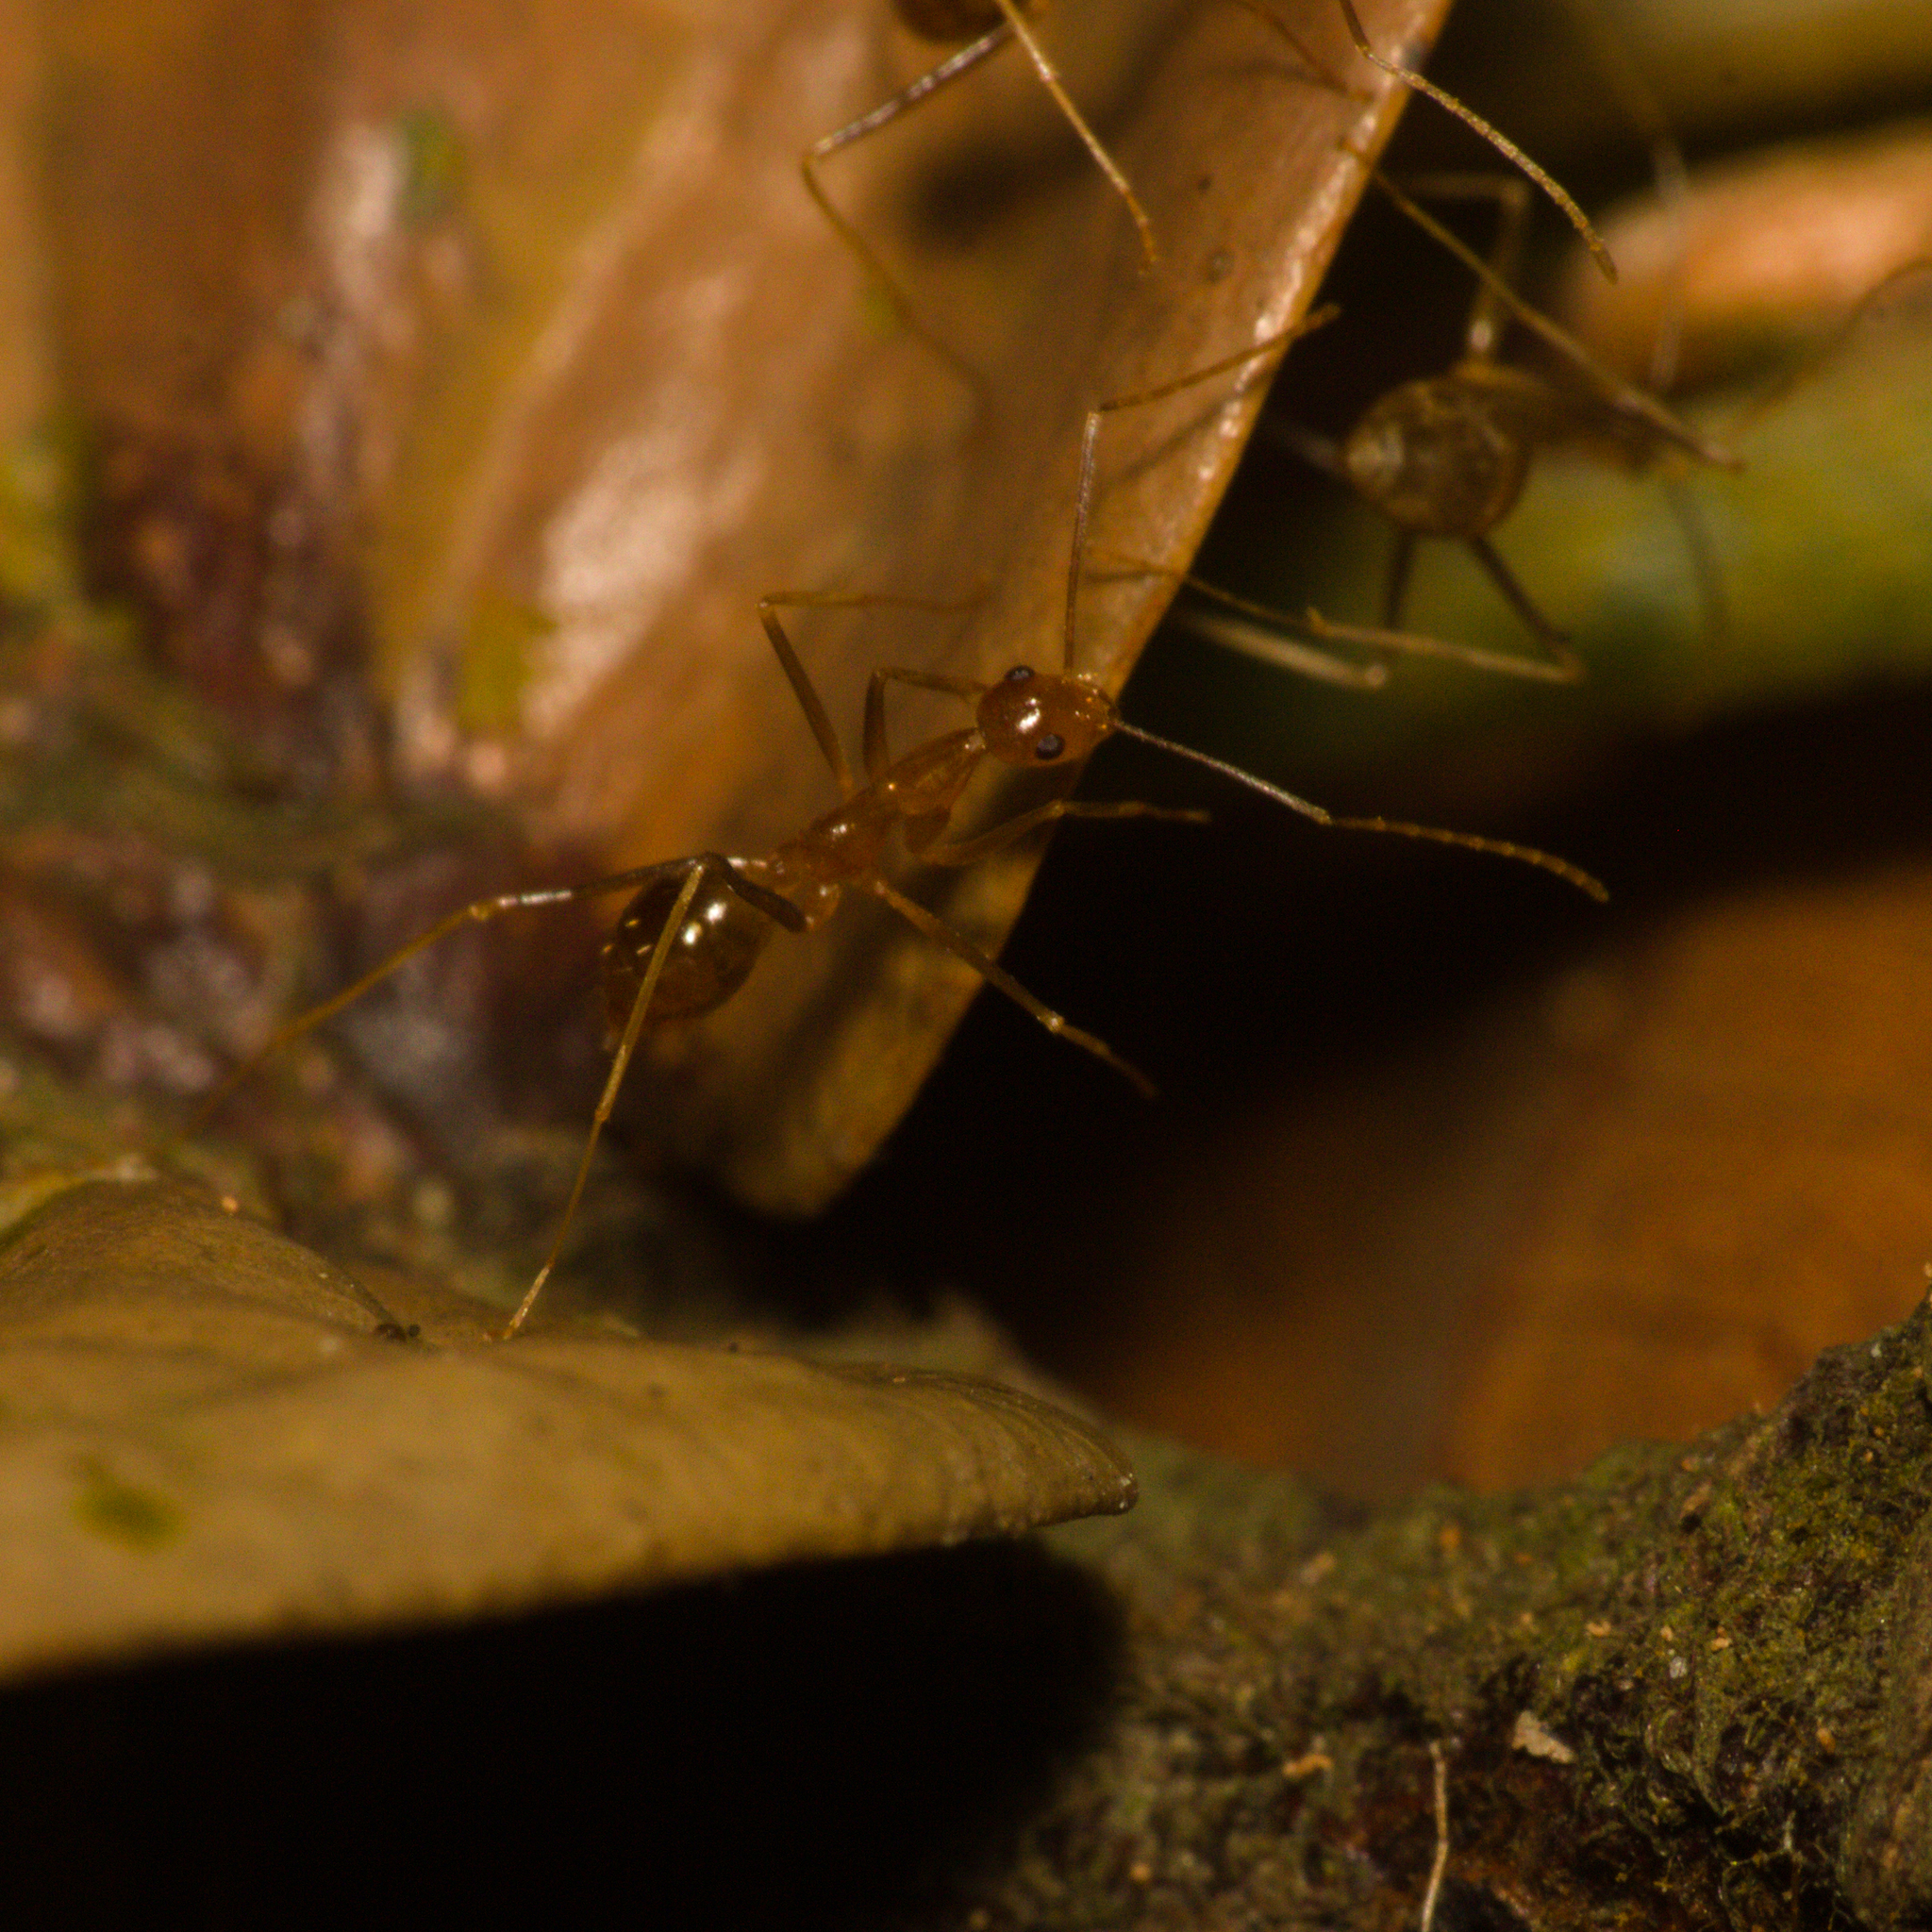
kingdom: Animalia
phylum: Arthropoda
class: Insecta
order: Hymenoptera
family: Formicidae
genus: Anoplolepis
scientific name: Anoplolepis gracilipes
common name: Ant
